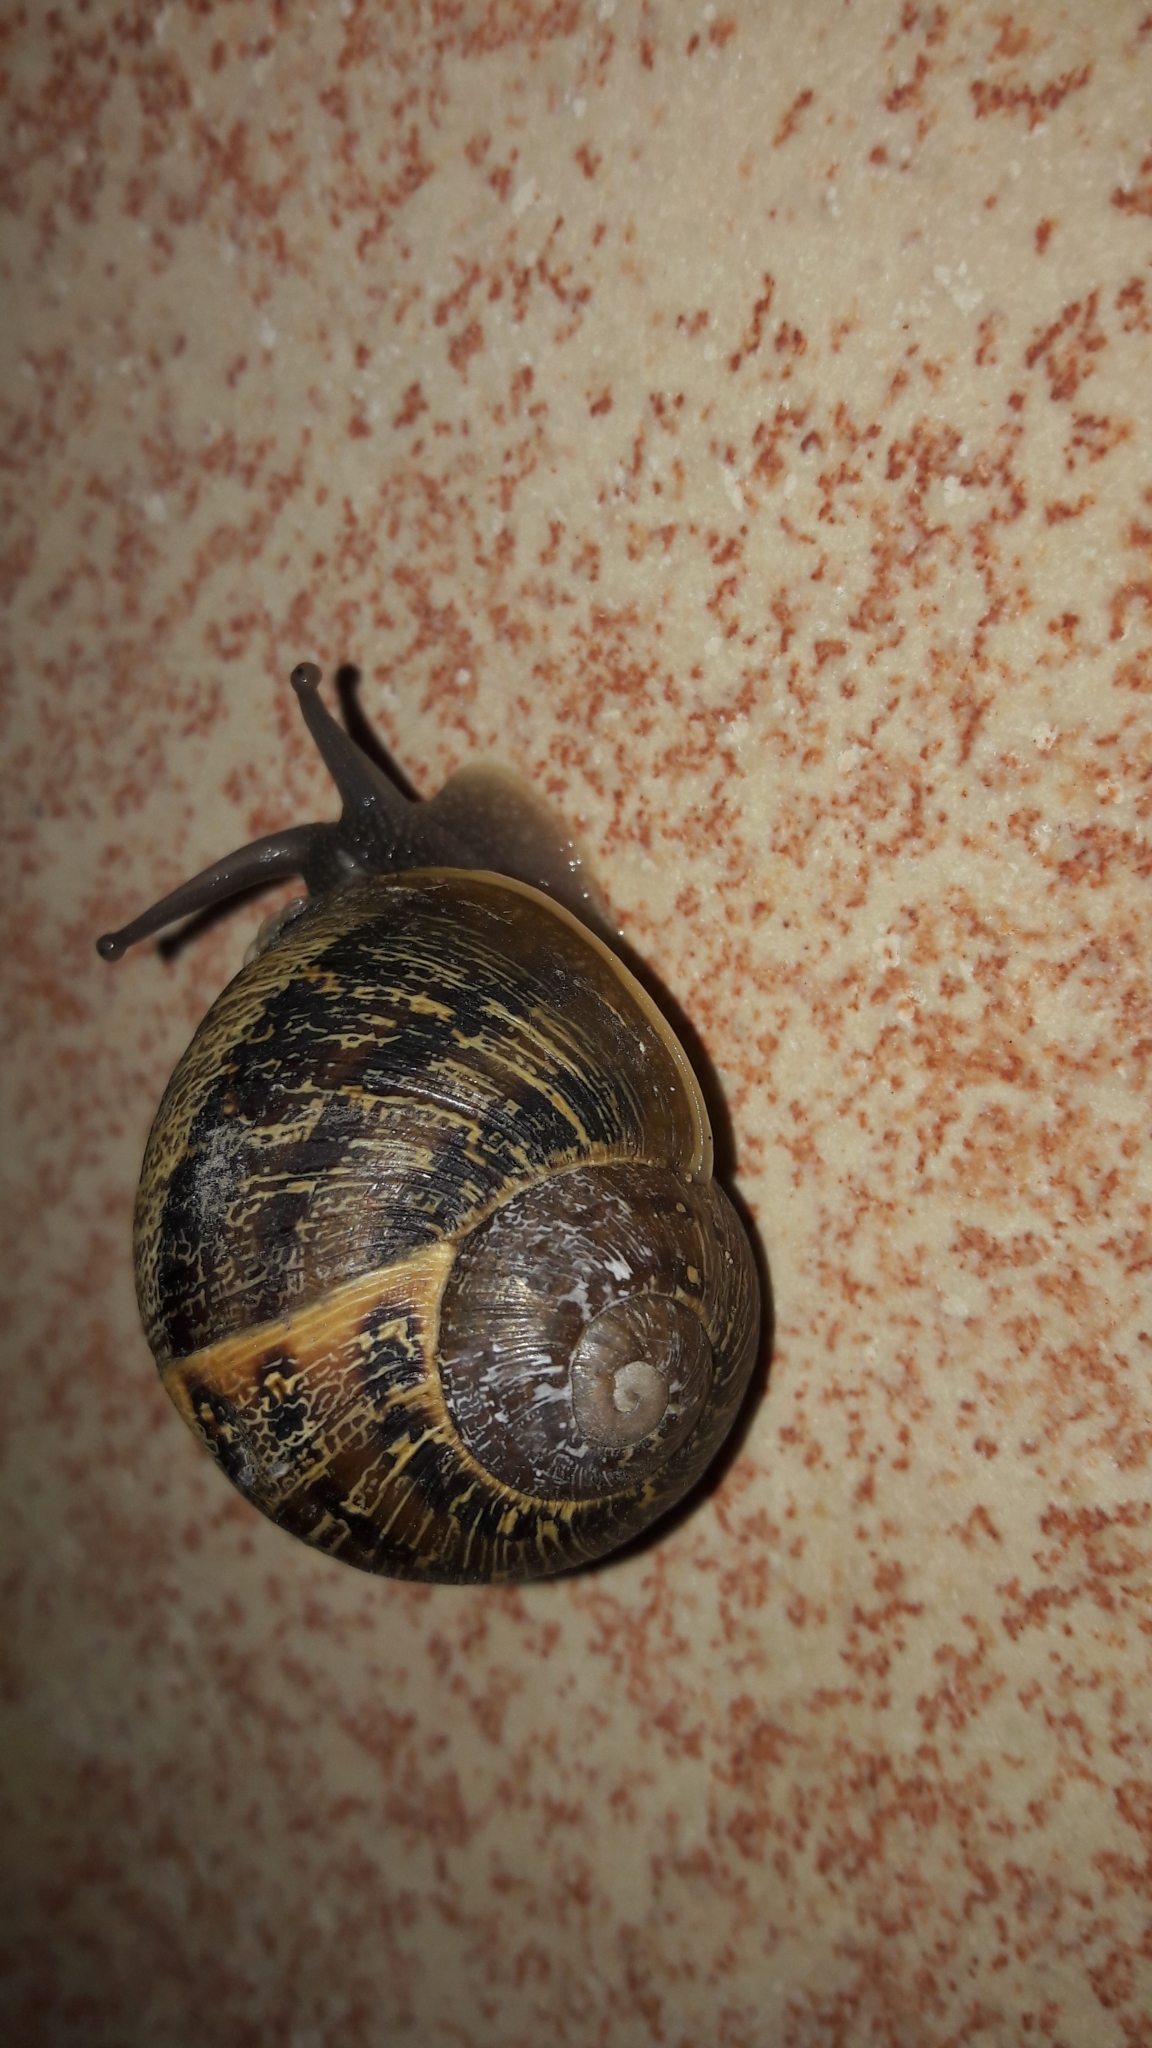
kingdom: Animalia
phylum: Mollusca
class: Gastropoda
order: Stylommatophora
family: Helicidae
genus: Cornu
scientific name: Cornu aspersum
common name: Brown garden snail
